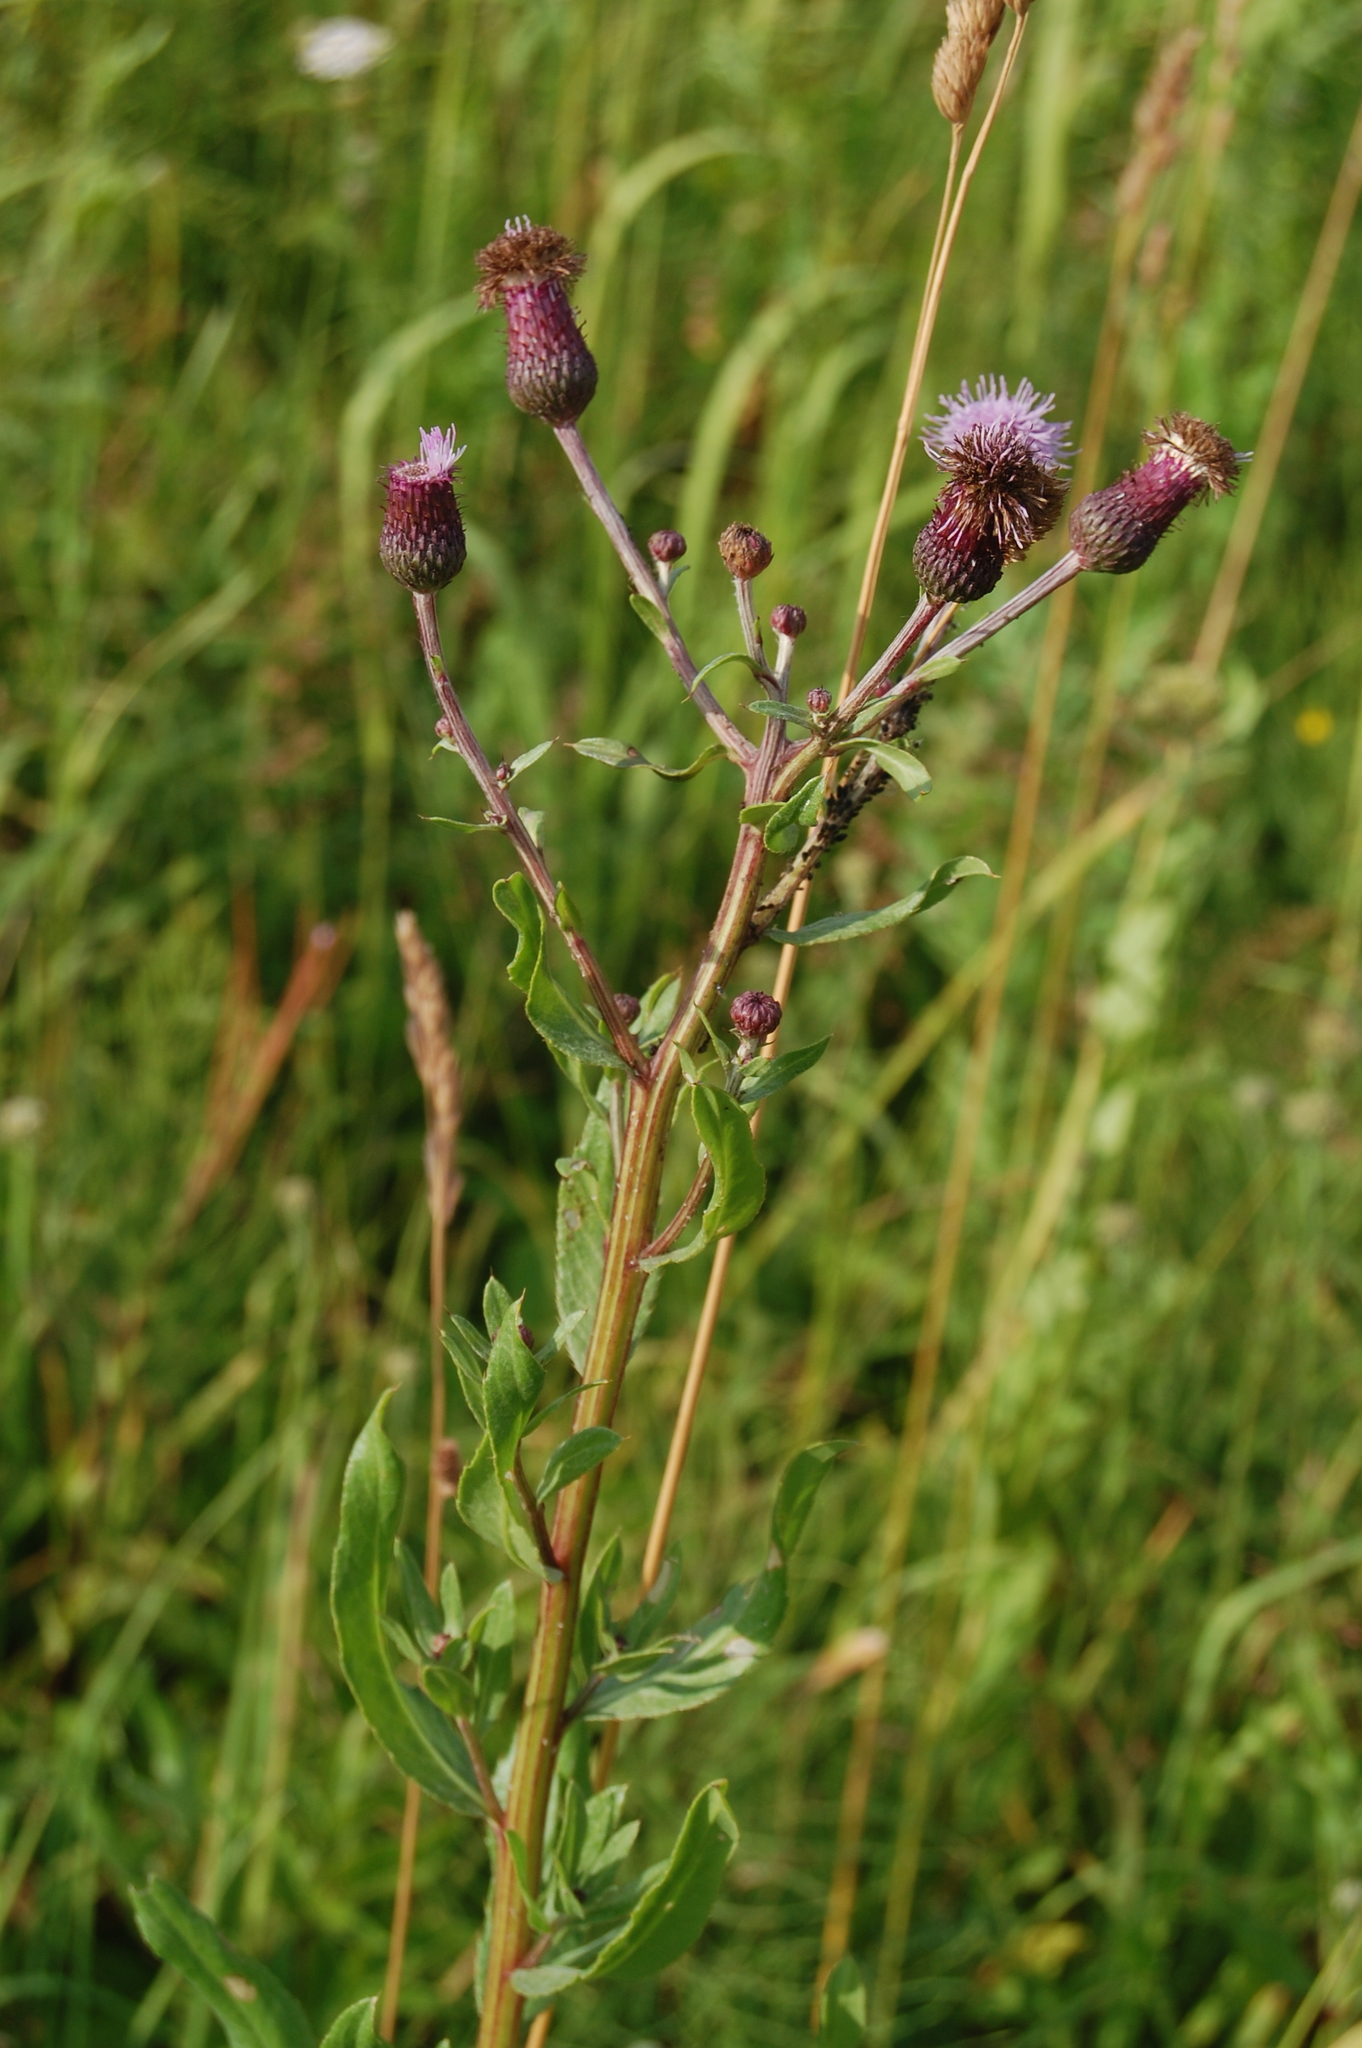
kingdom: Plantae
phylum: Tracheophyta
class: Magnoliopsida
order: Asterales
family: Asteraceae
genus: Cirsium
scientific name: Cirsium arvense
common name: Creeping thistle
